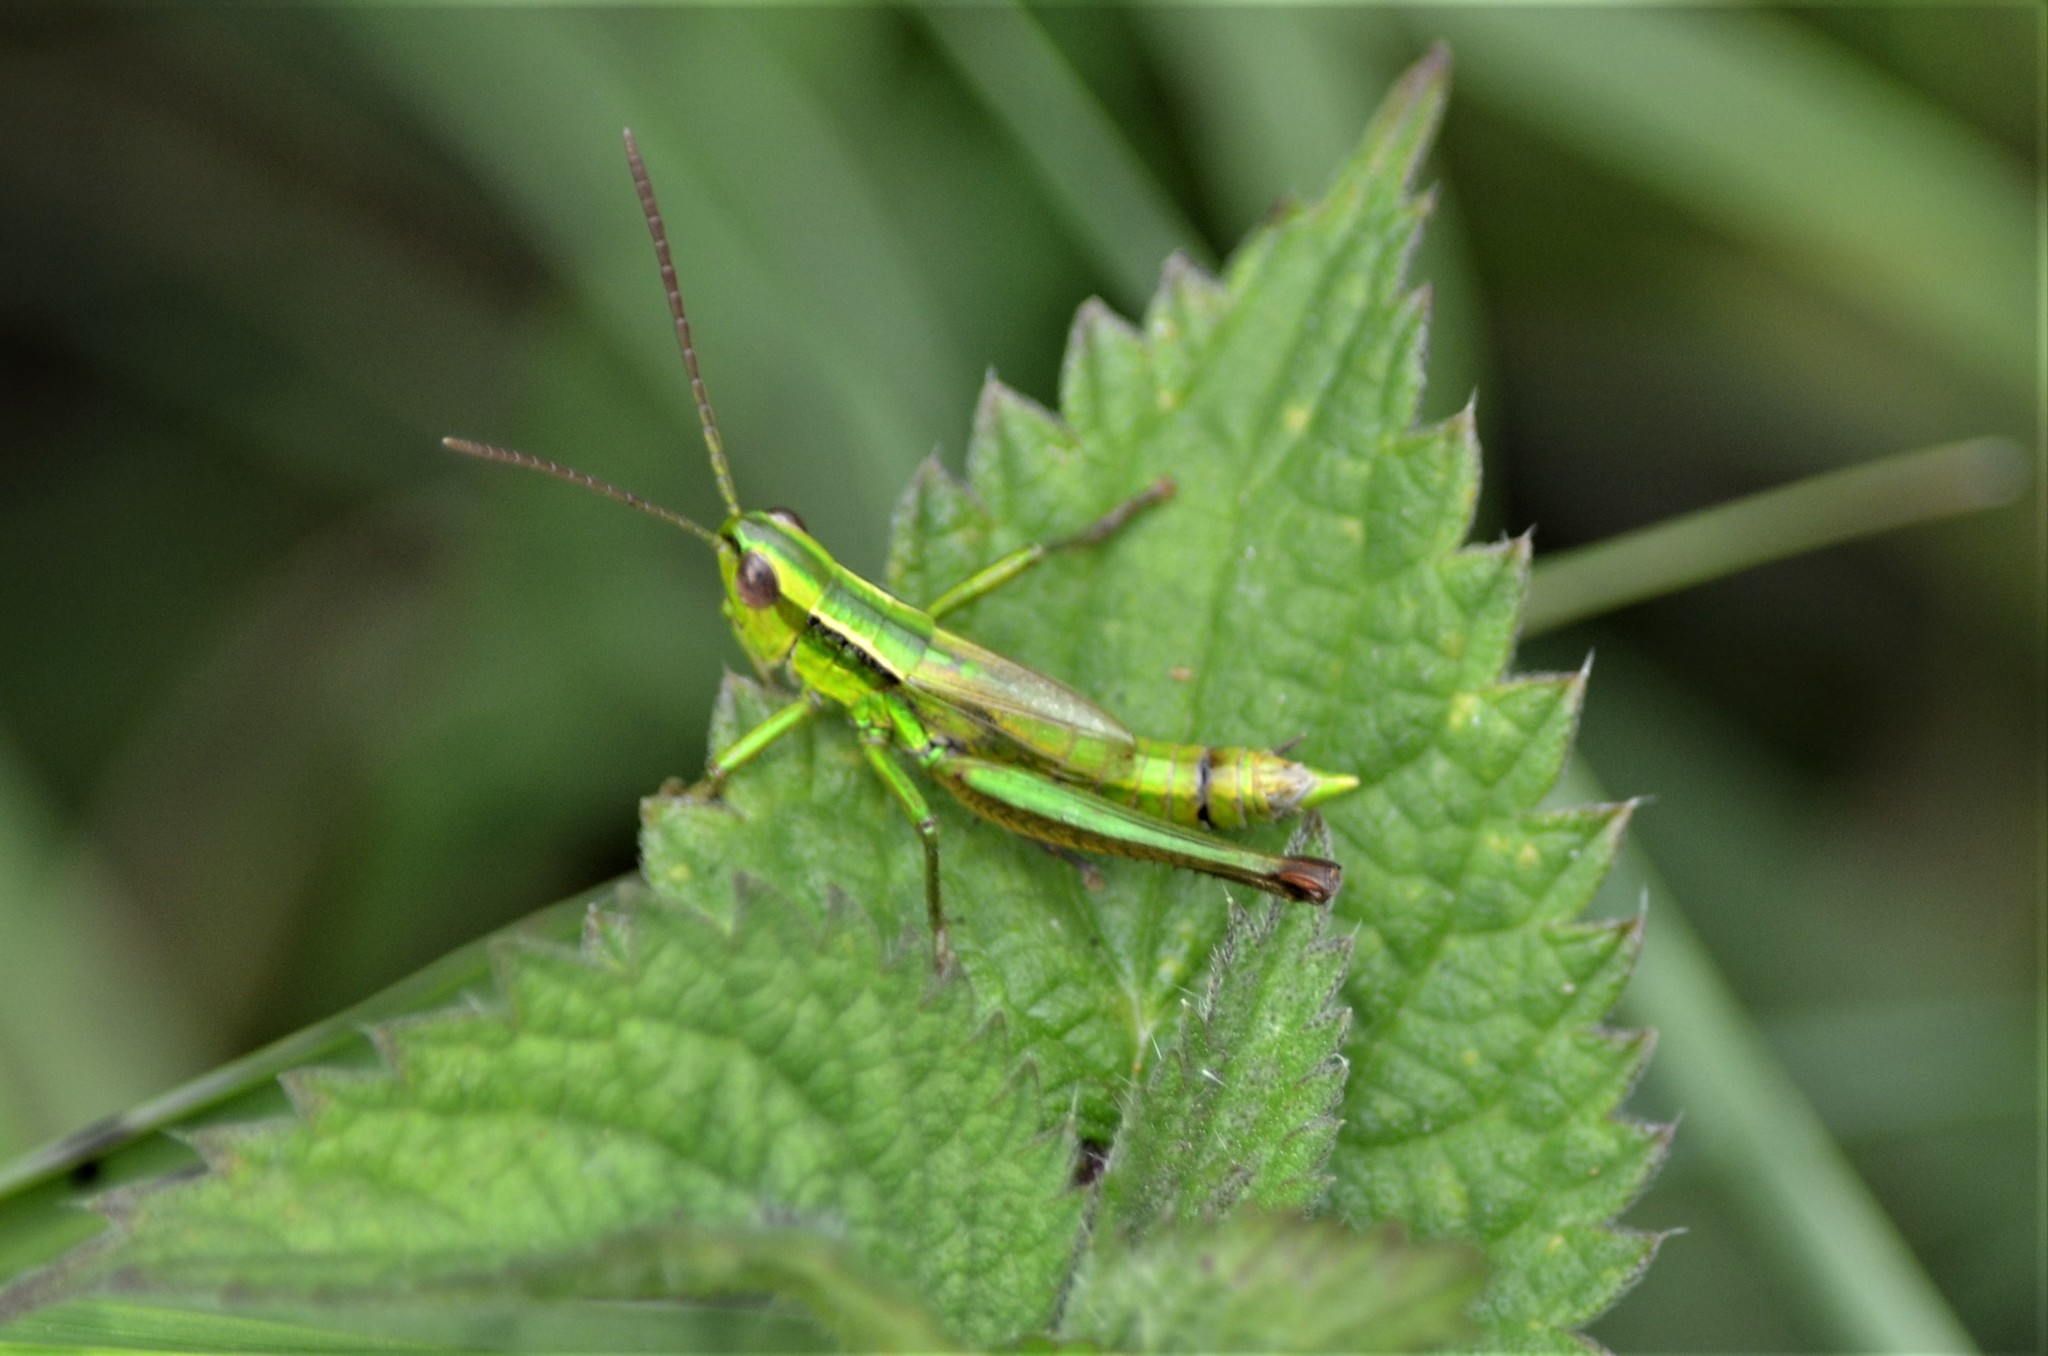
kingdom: Animalia
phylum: Arthropoda
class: Insecta
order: Orthoptera
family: Acrididae
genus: Euthystira
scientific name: Euthystira brachyptera
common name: Small gold grasshopper
